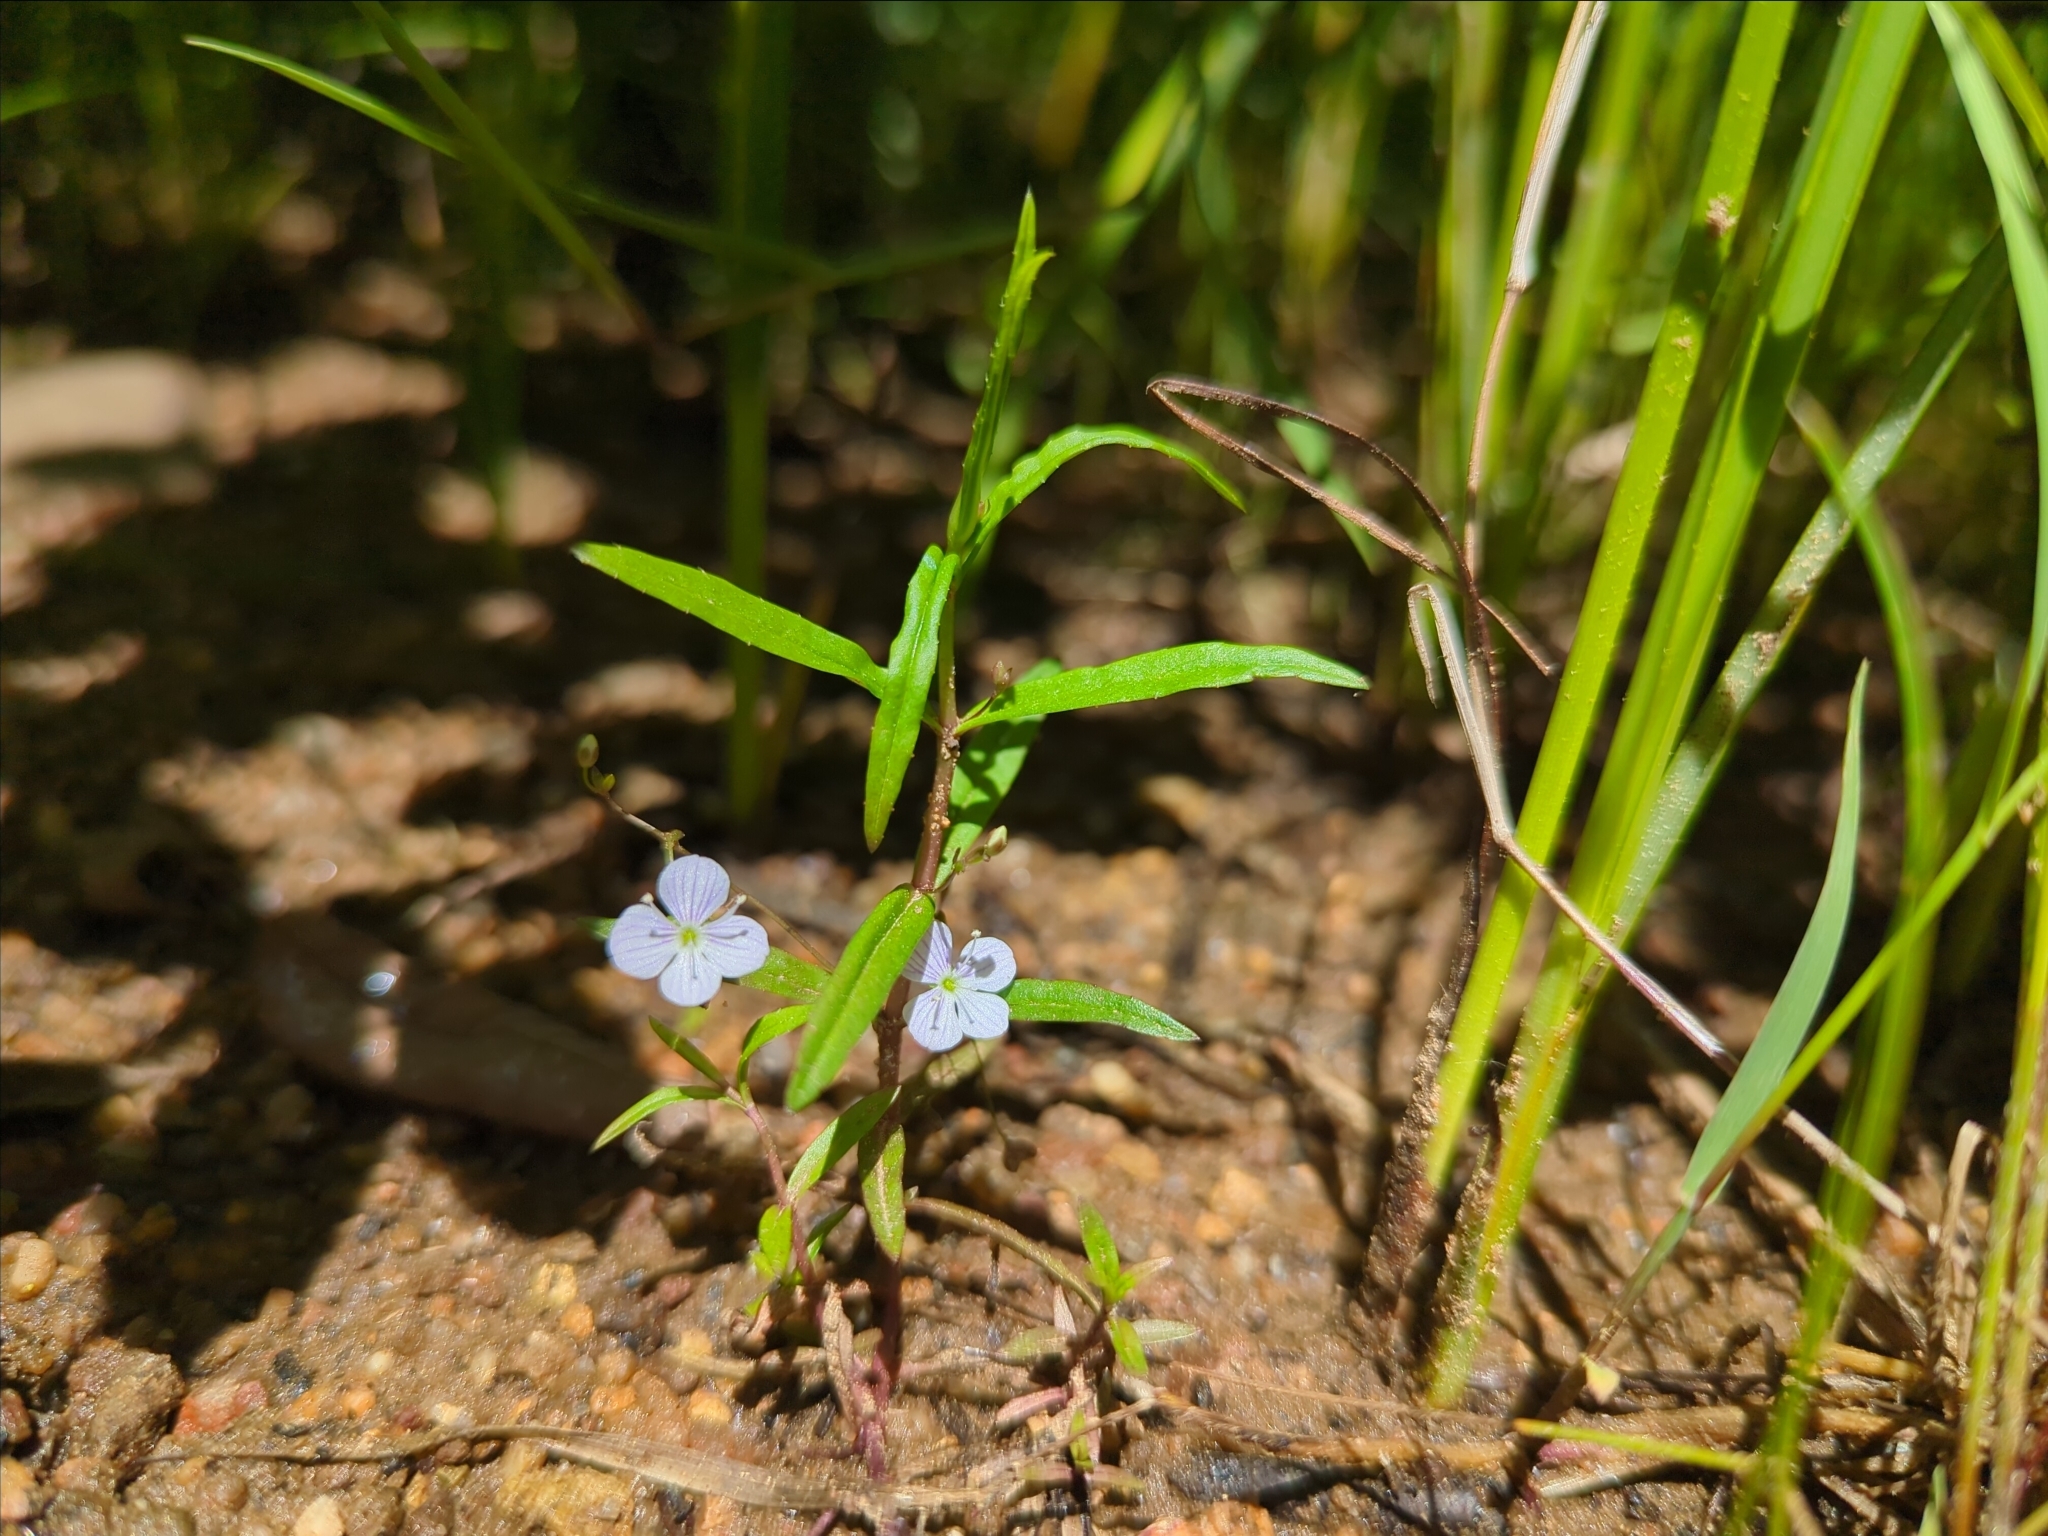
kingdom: Plantae
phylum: Tracheophyta
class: Magnoliopsida
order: Lamiales
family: Plantaginaceae
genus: Veronica
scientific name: Veronica scutellata
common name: Marsh speedwell
